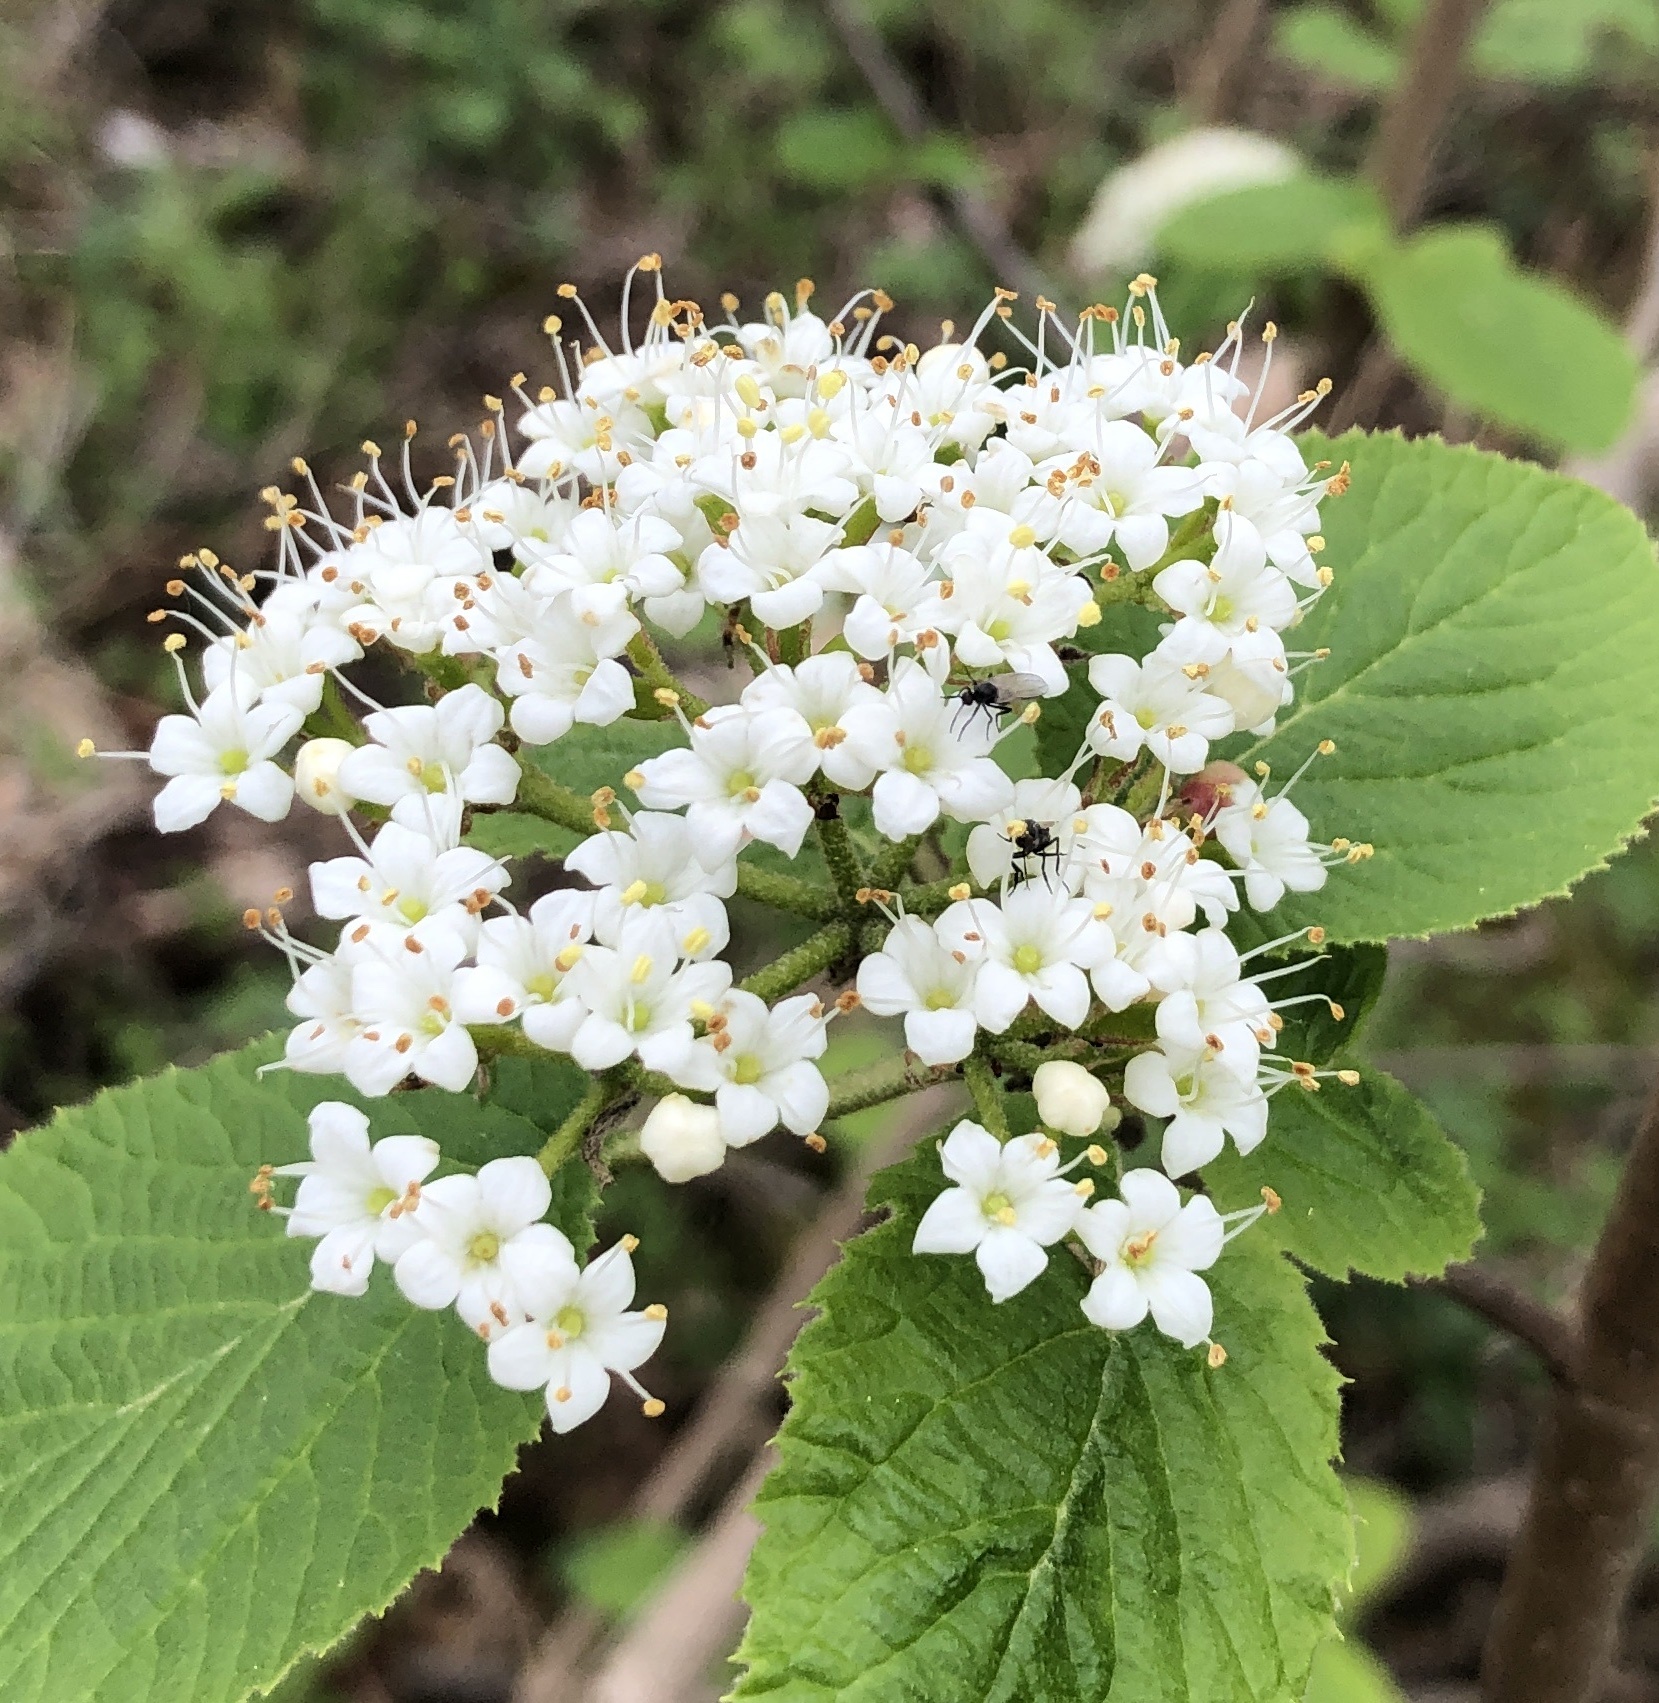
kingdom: Plantae
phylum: Tracheophyta
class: Magnoliopsida
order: Dipsacales
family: Viburnaceae
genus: Viburnum
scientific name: Viburnum lantana
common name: Wayfaring tree
